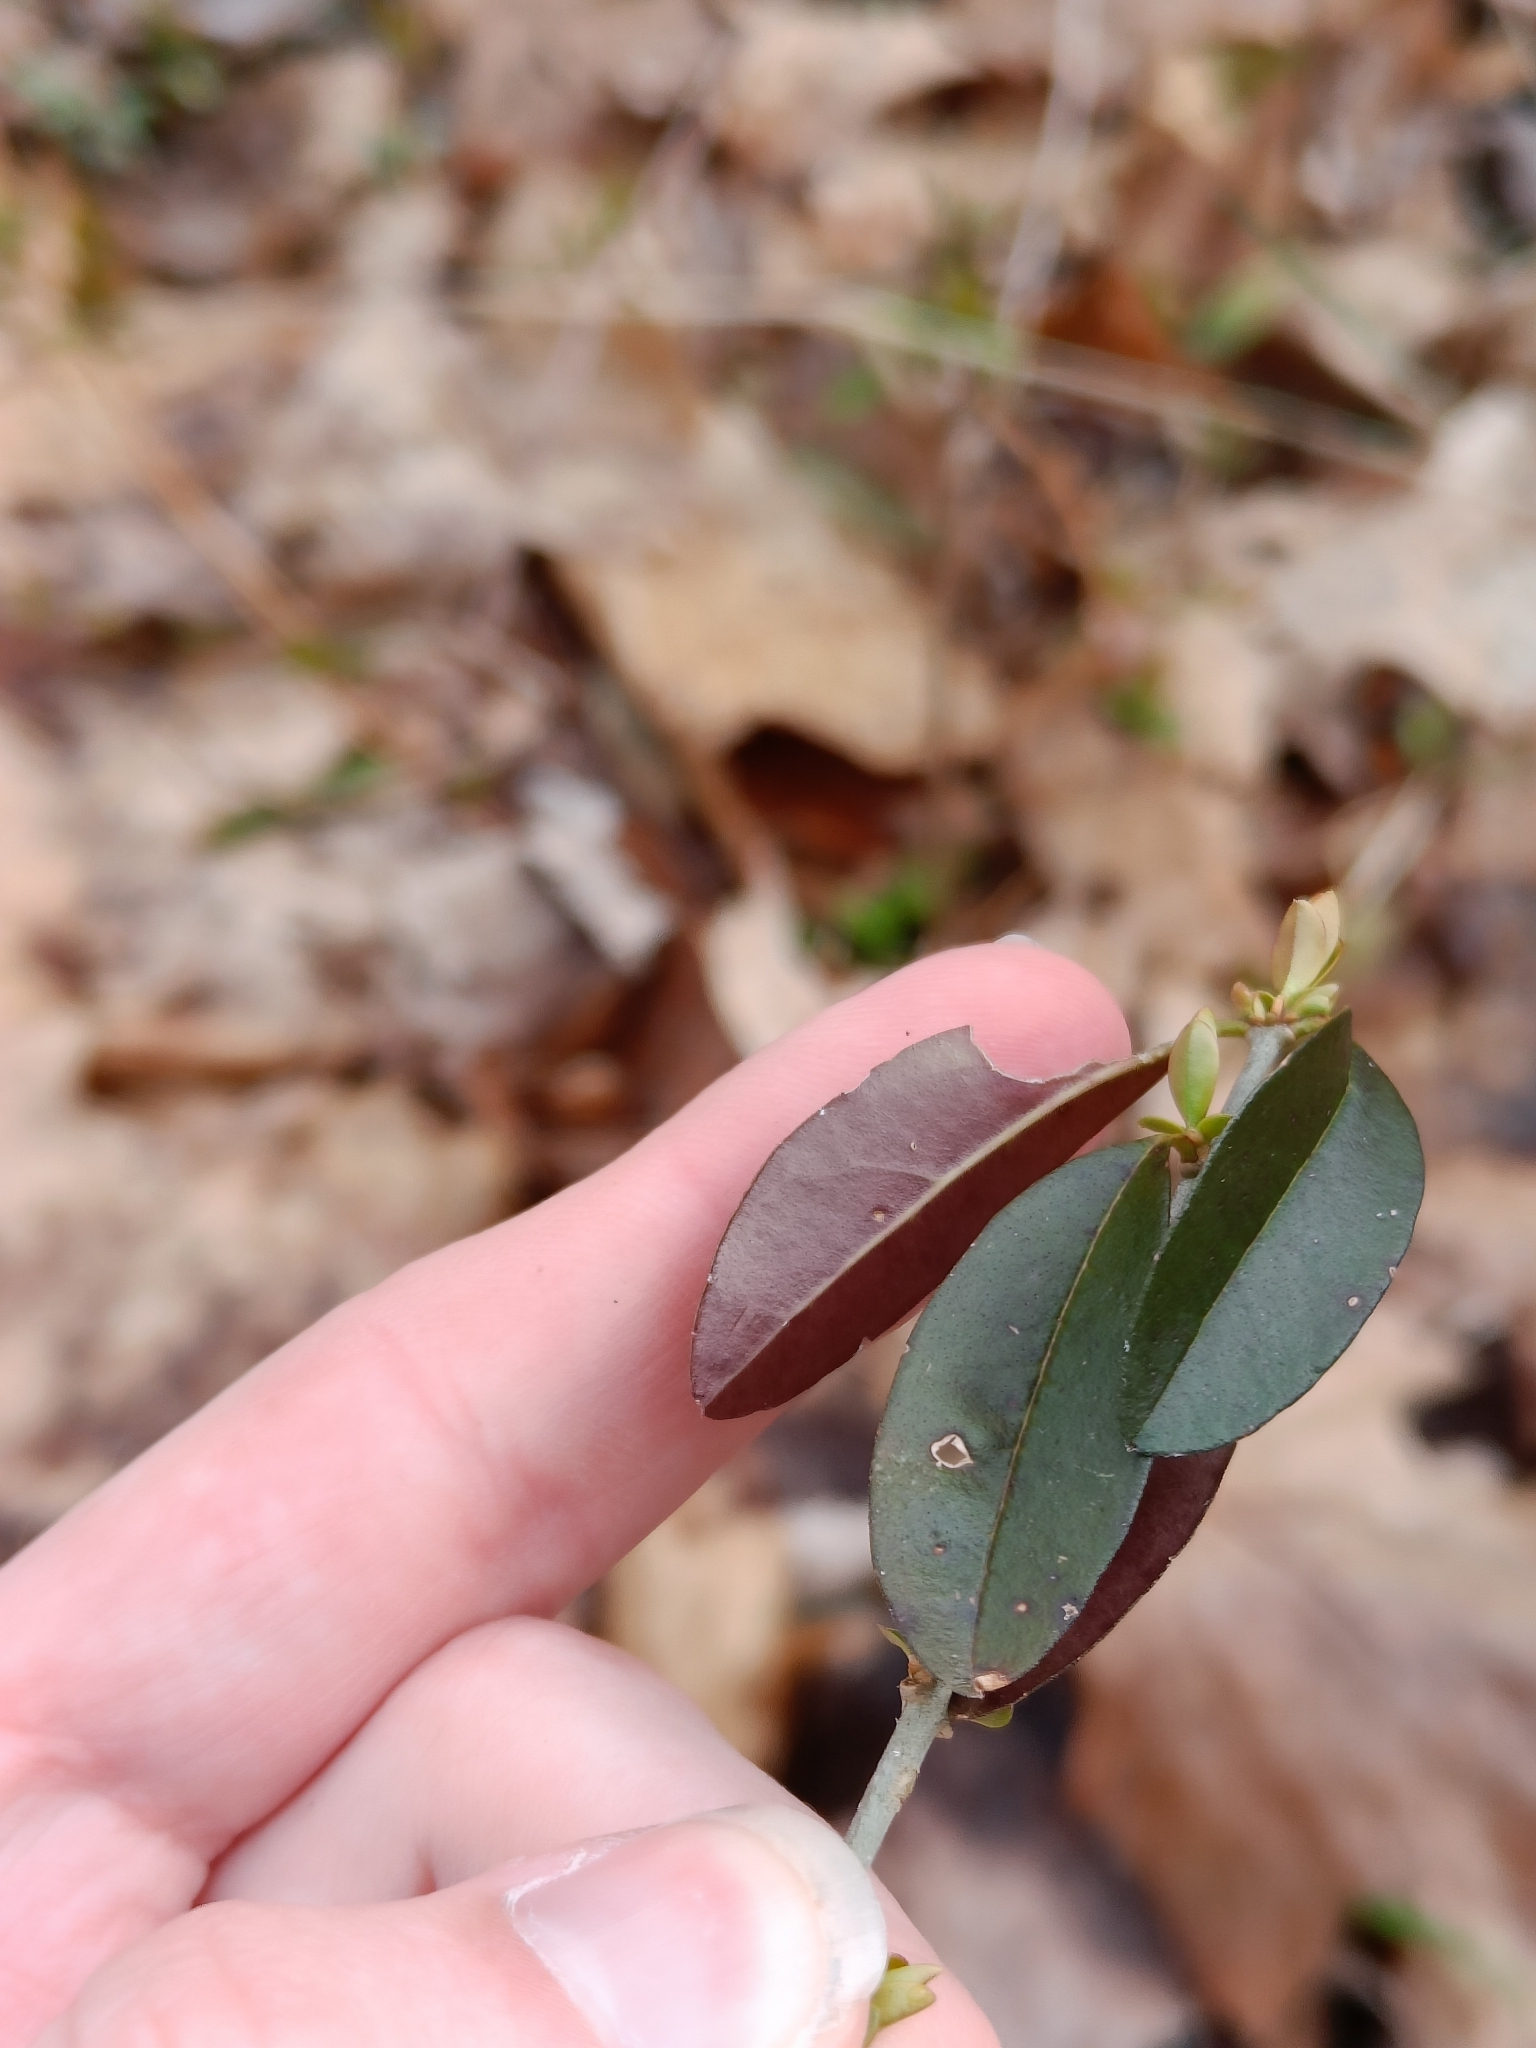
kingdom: Plantae
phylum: Tracheophyta
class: Magnoliopsida
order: Lamiales
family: Oleaceae
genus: Ligustrum
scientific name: Ligustrum obtusifolium
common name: Border privet
